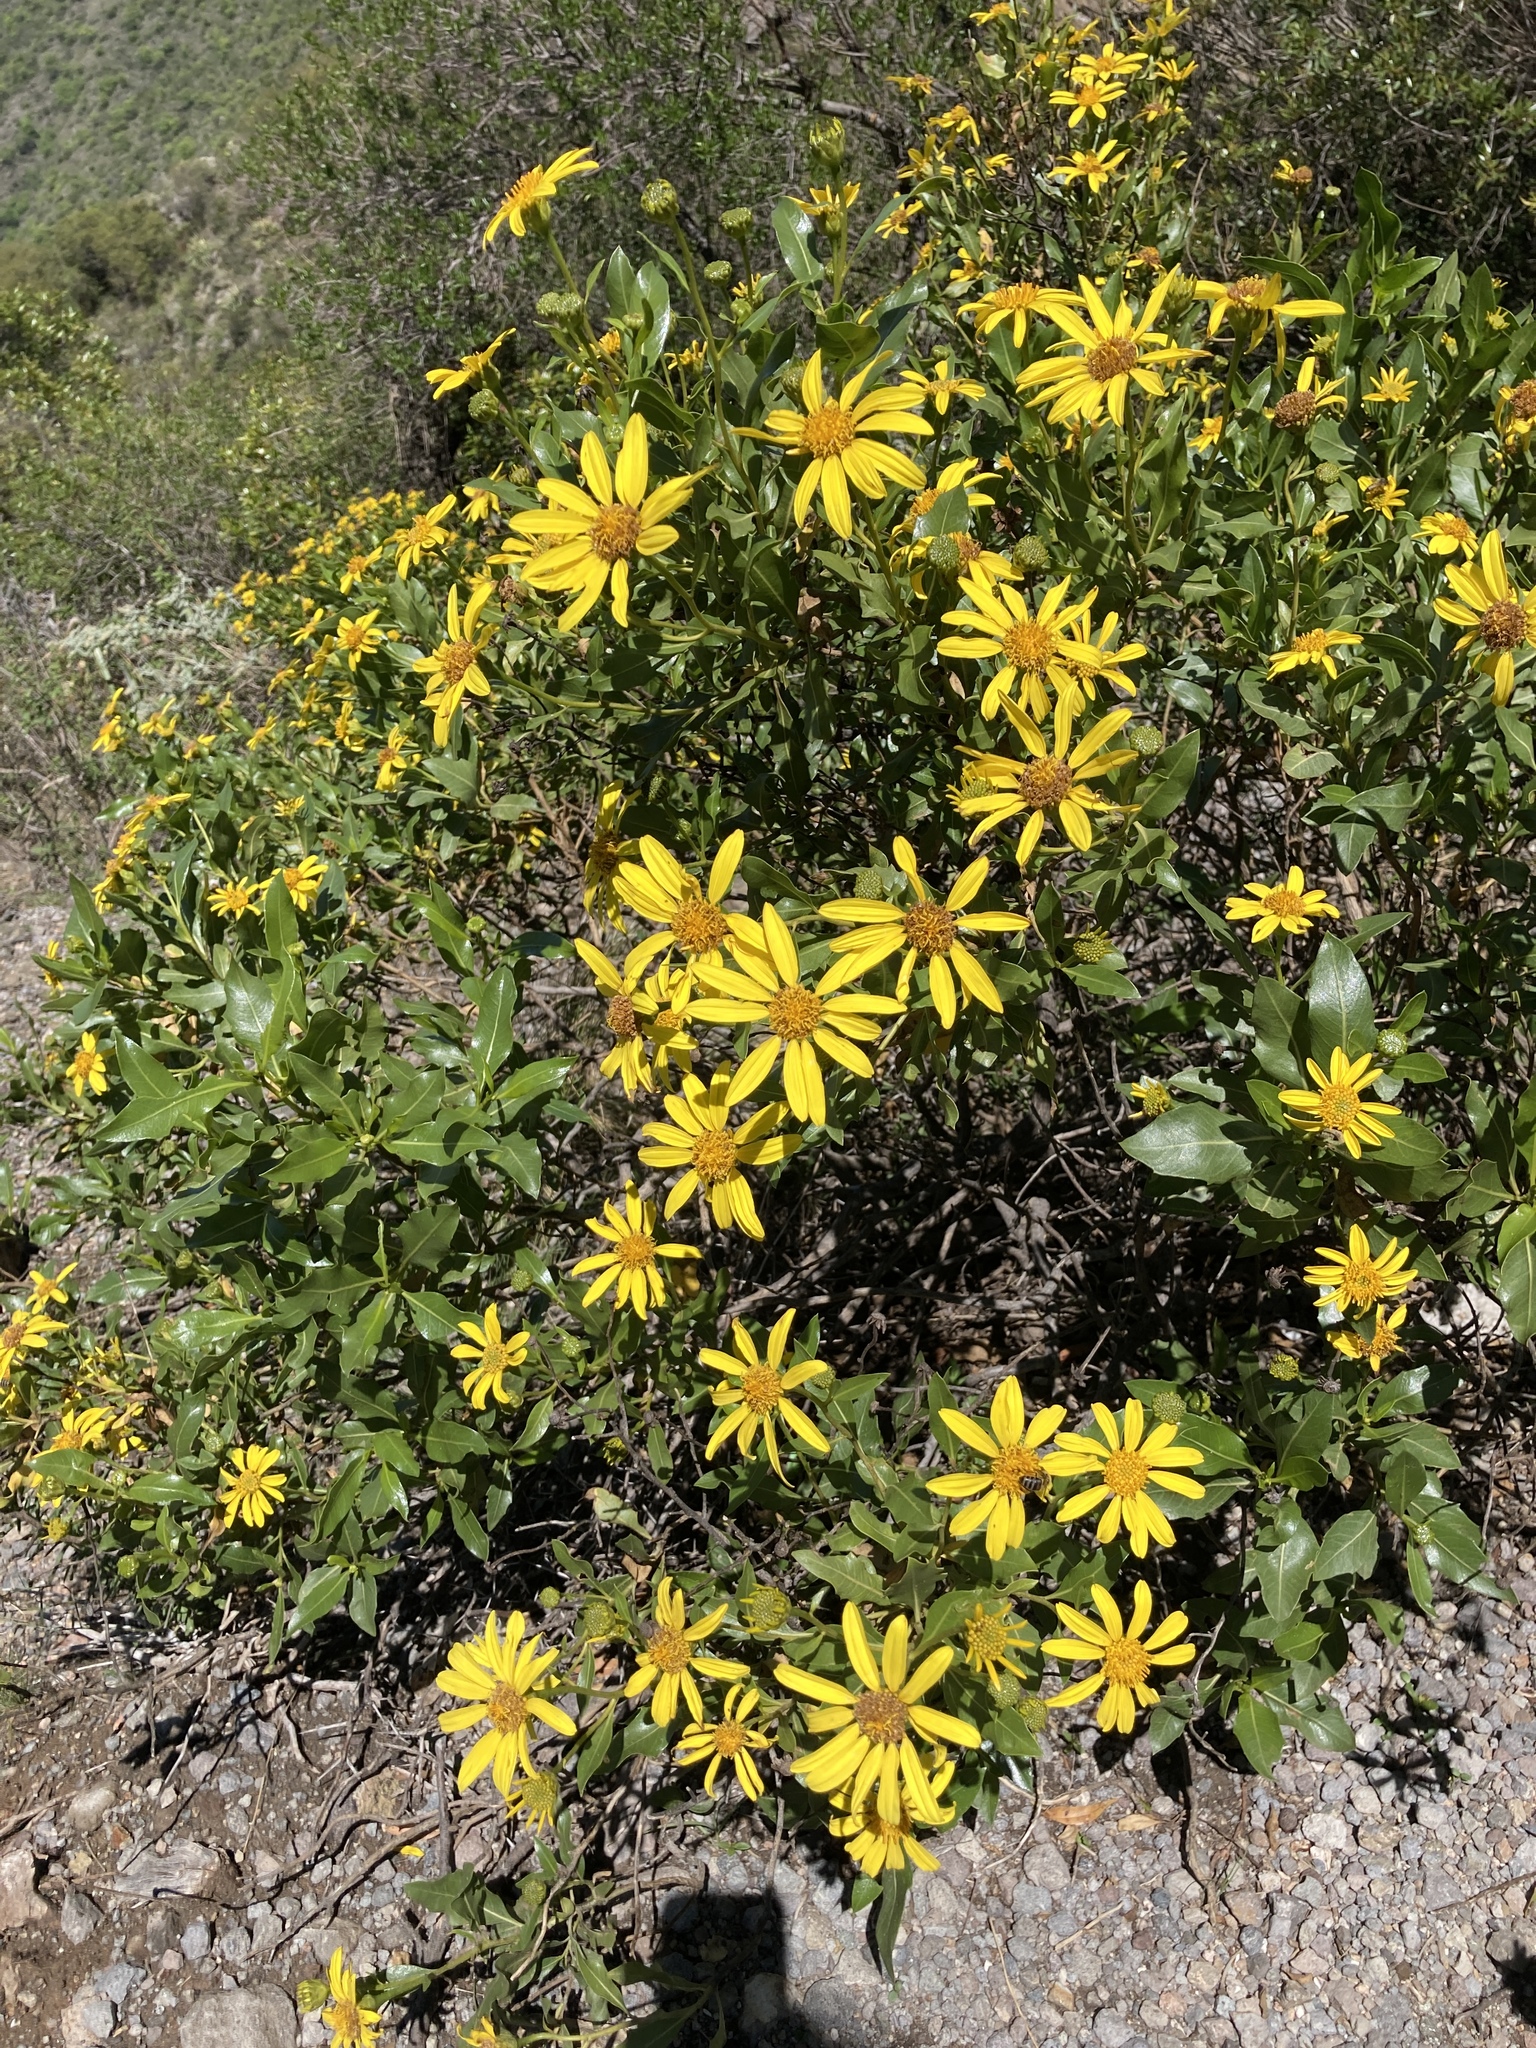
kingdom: Plantae
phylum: Tracheophyta
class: Magnoliopsida
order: Asterales
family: Asteraceae
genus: Flourensia
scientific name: Flourensia thurifera
